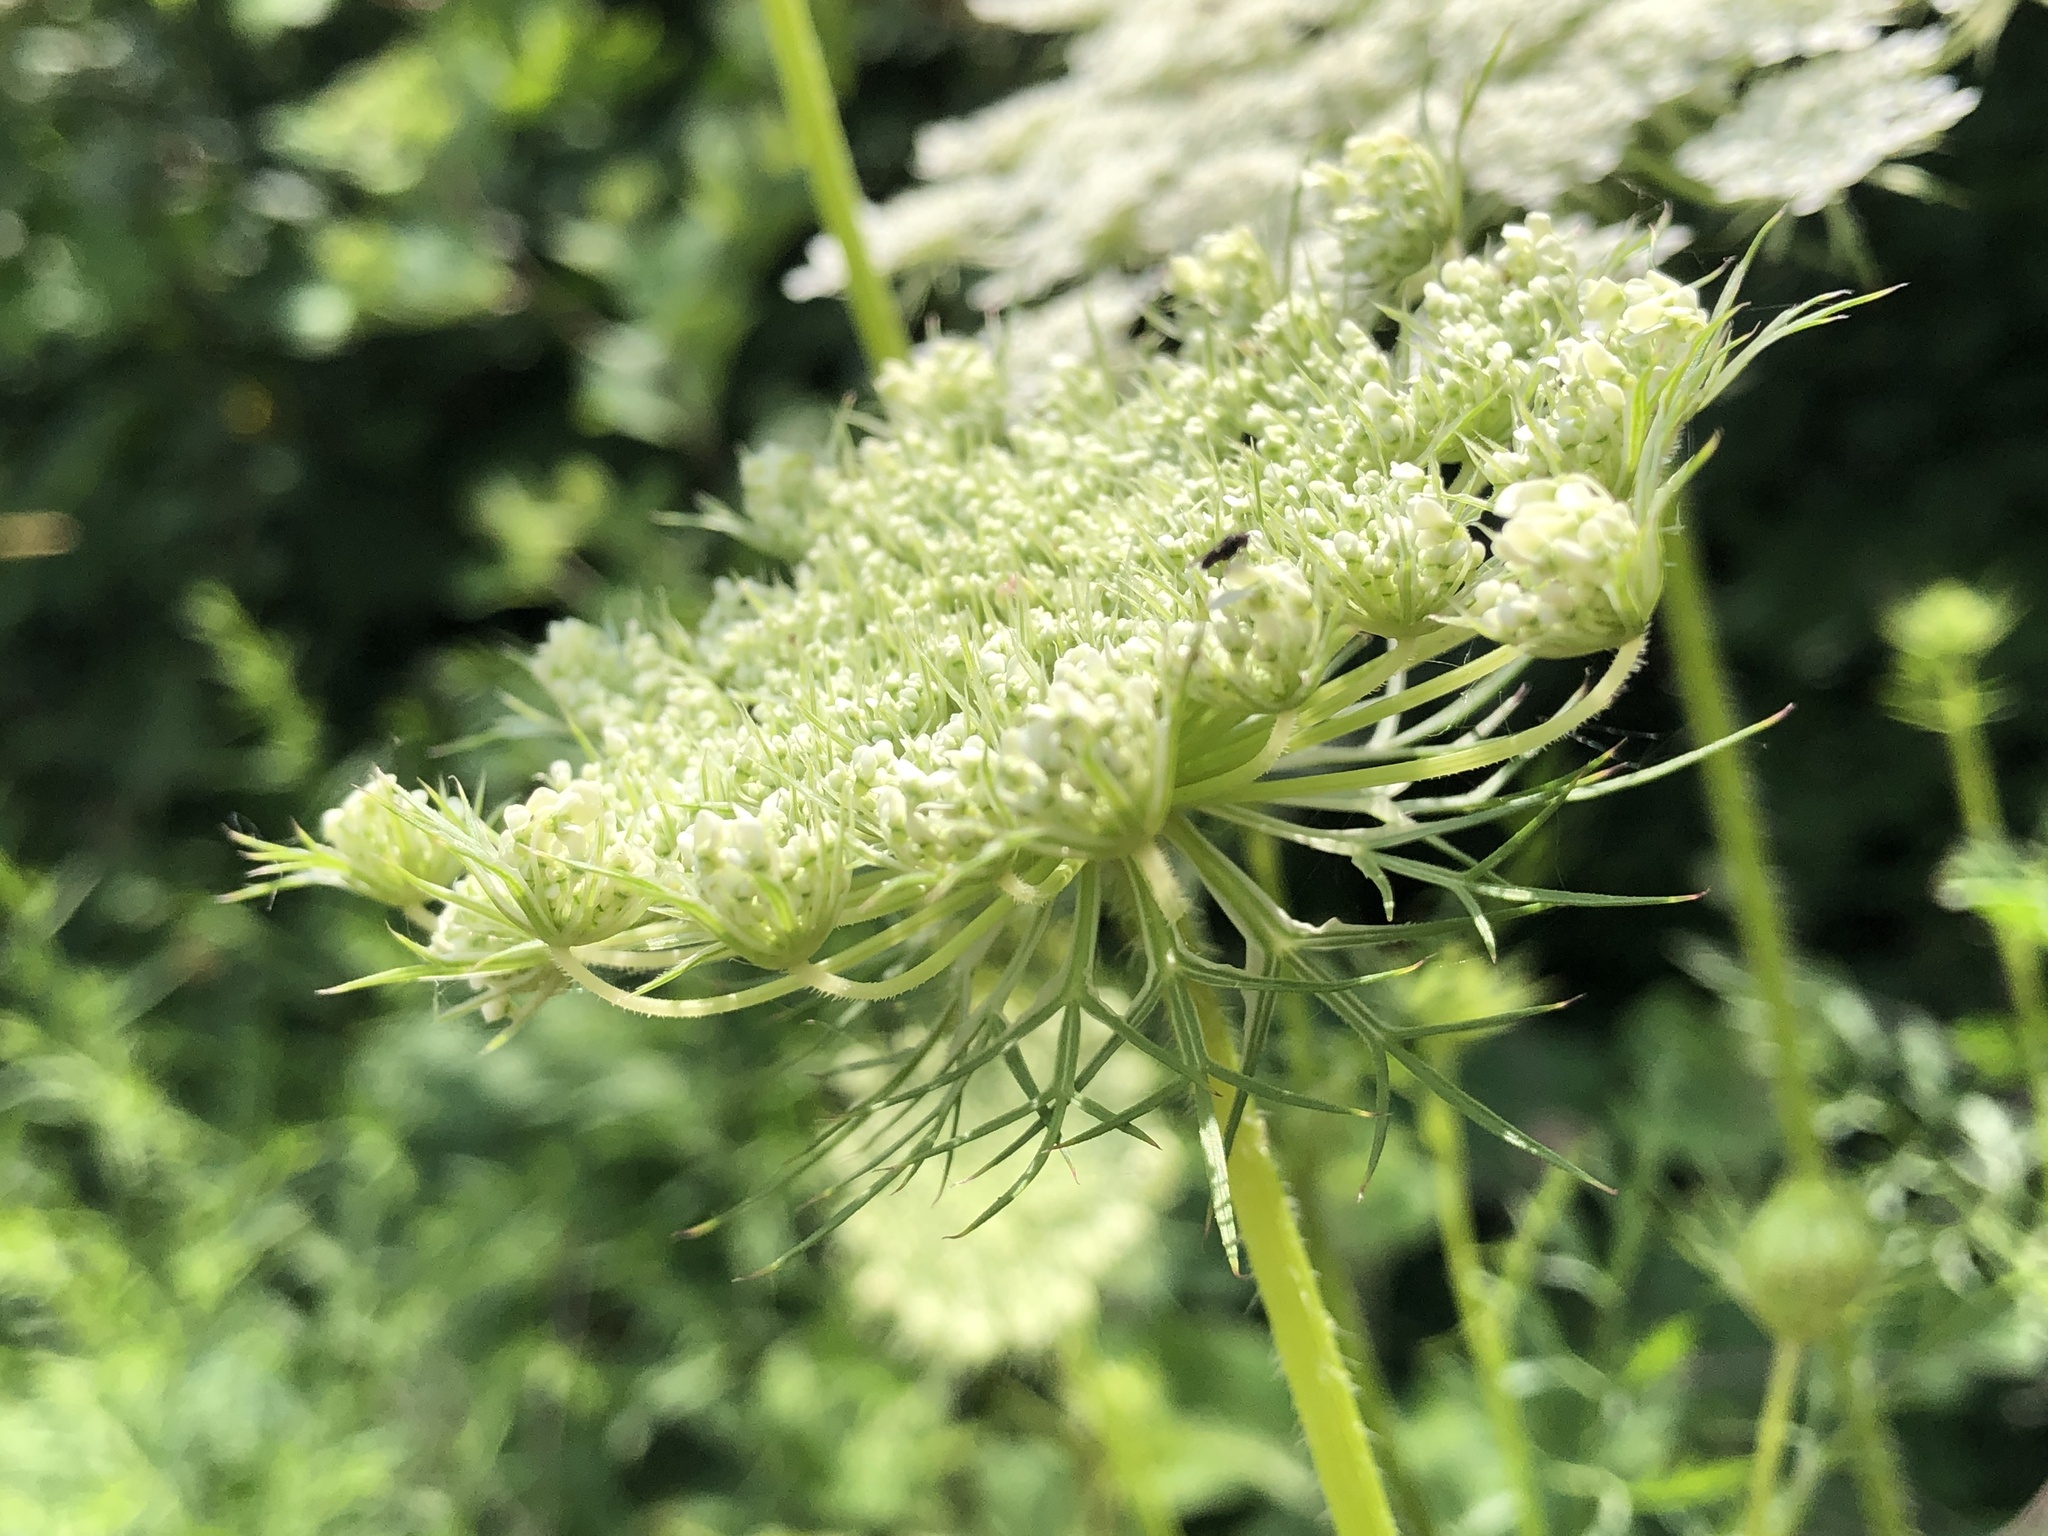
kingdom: Plantae
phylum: Tracheophyta
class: Magnoliopsida
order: Apiales
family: Apiaceae
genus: Daucus
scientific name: Daucus carota
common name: Wild carrot
